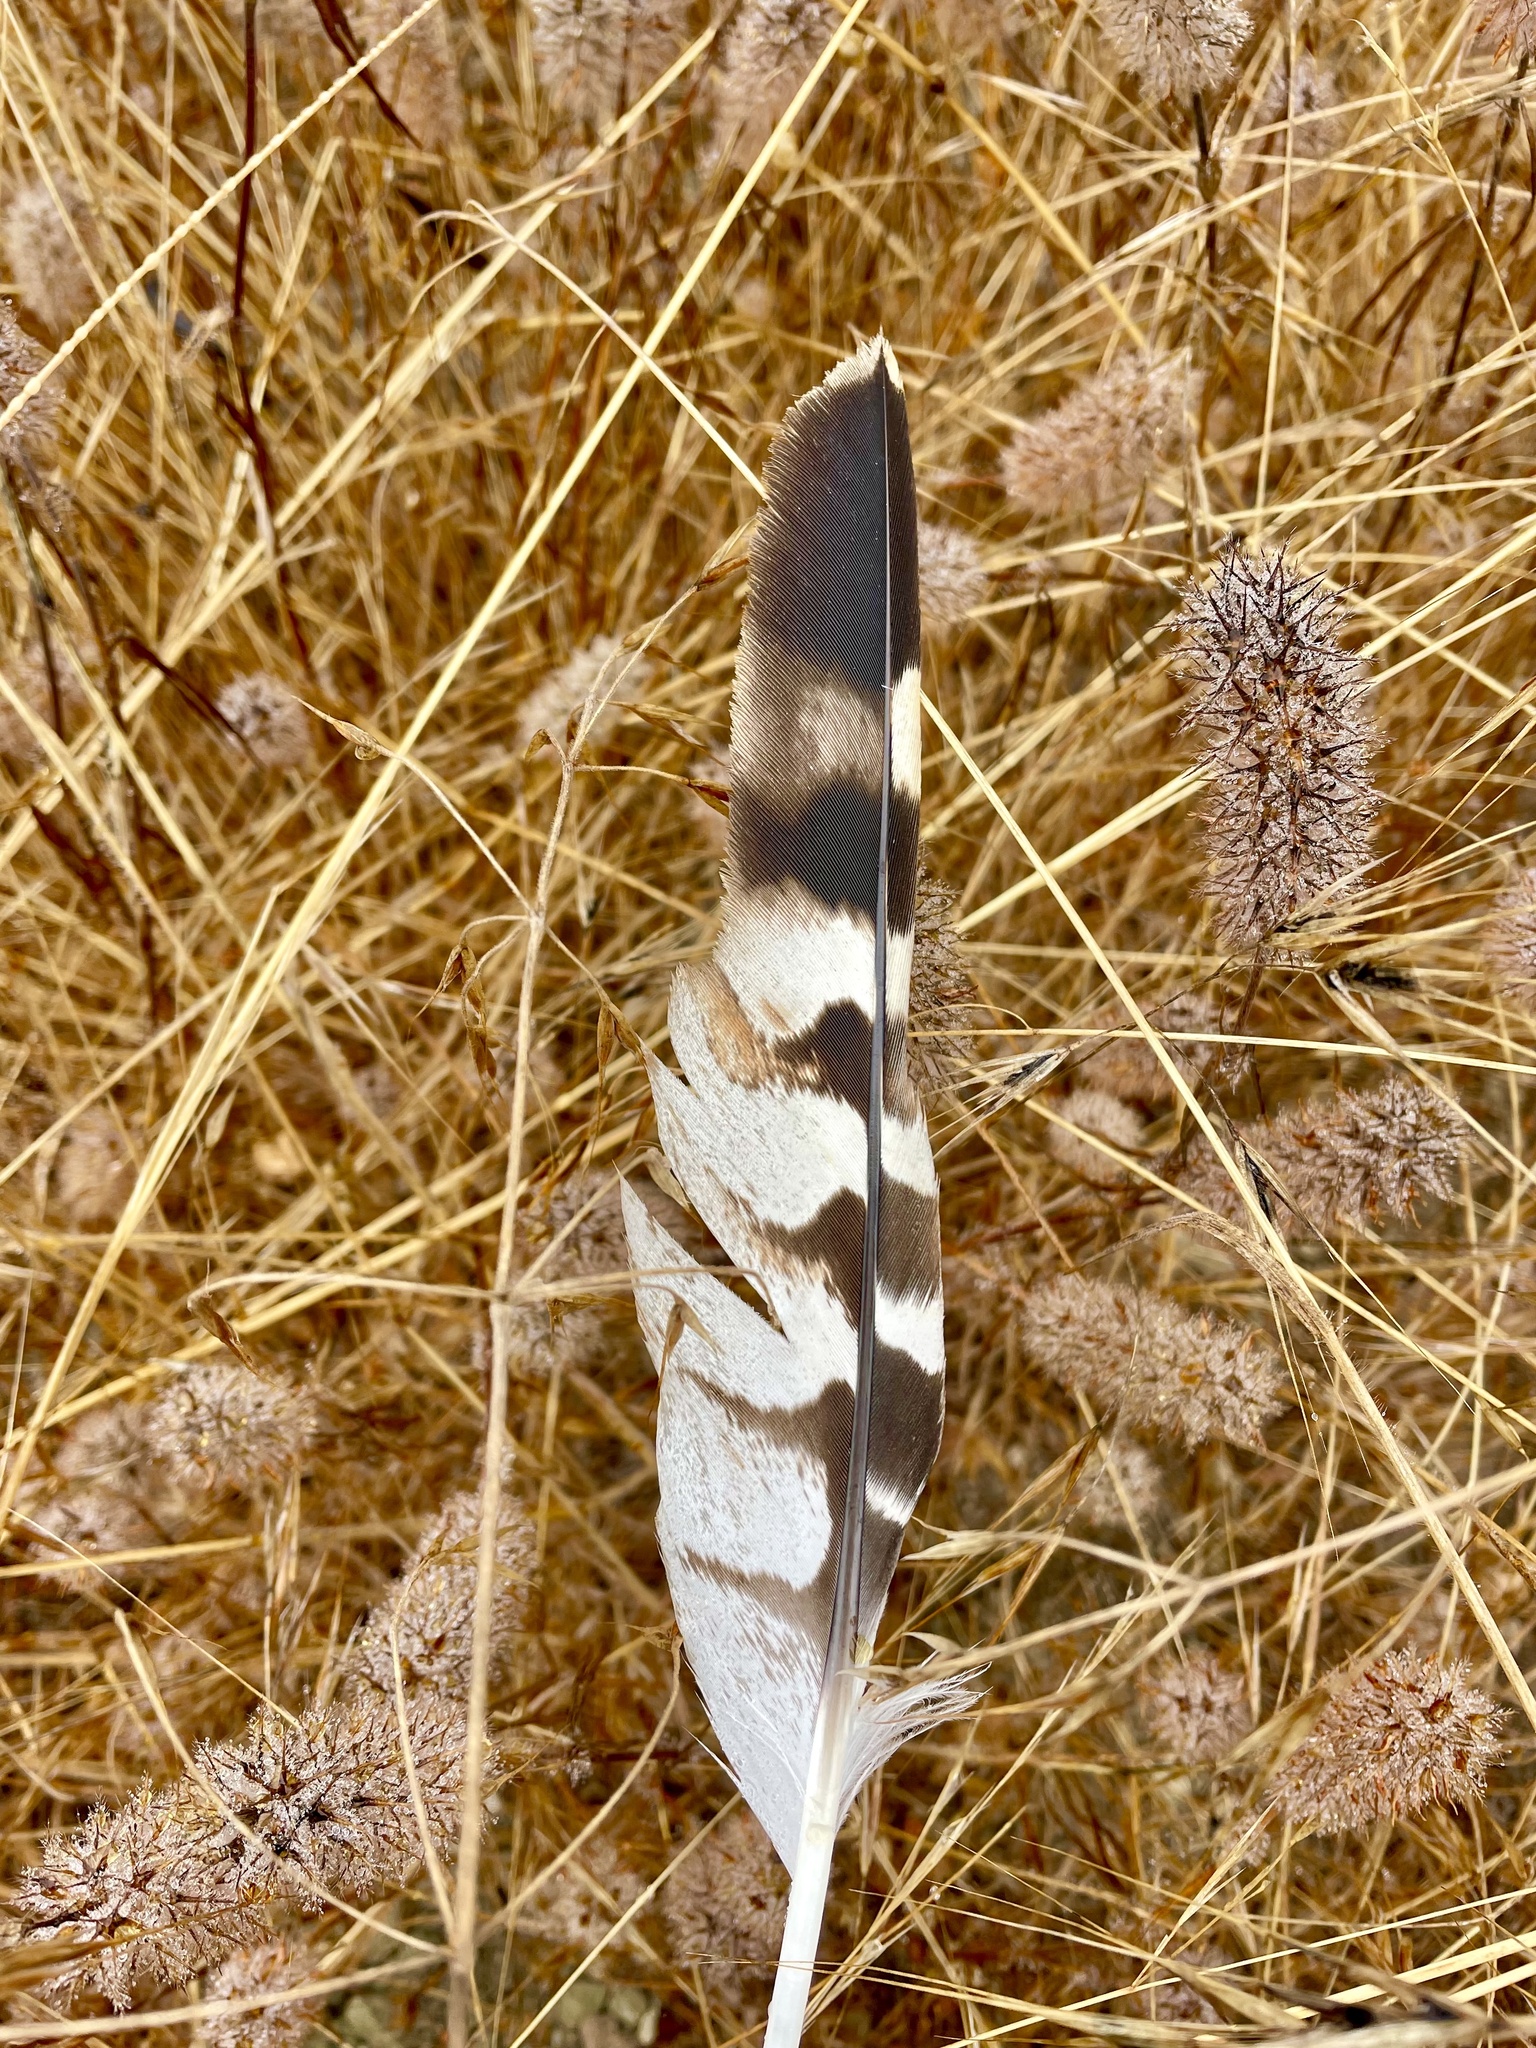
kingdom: Animalia
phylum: Chordata
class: Aves
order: Accipitriformes
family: Accipitridae
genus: Buteo
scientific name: Buteo lineatus
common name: Red-shouldered hawk
